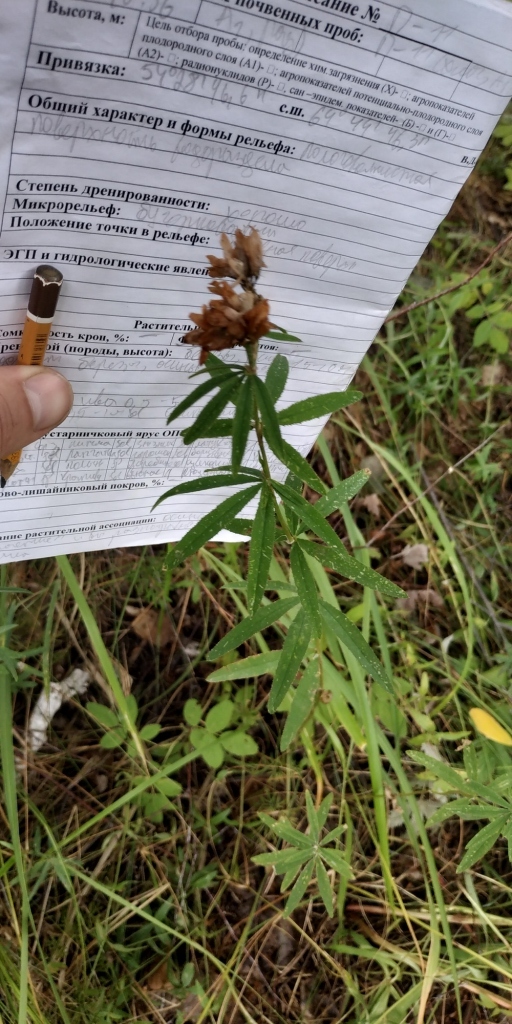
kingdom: Plantae
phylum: Tracheophyta
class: Magnoliopsida
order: Fabales
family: Fabaceae
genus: Trifolium
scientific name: Trifolium lupinaster
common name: Lupine clover
